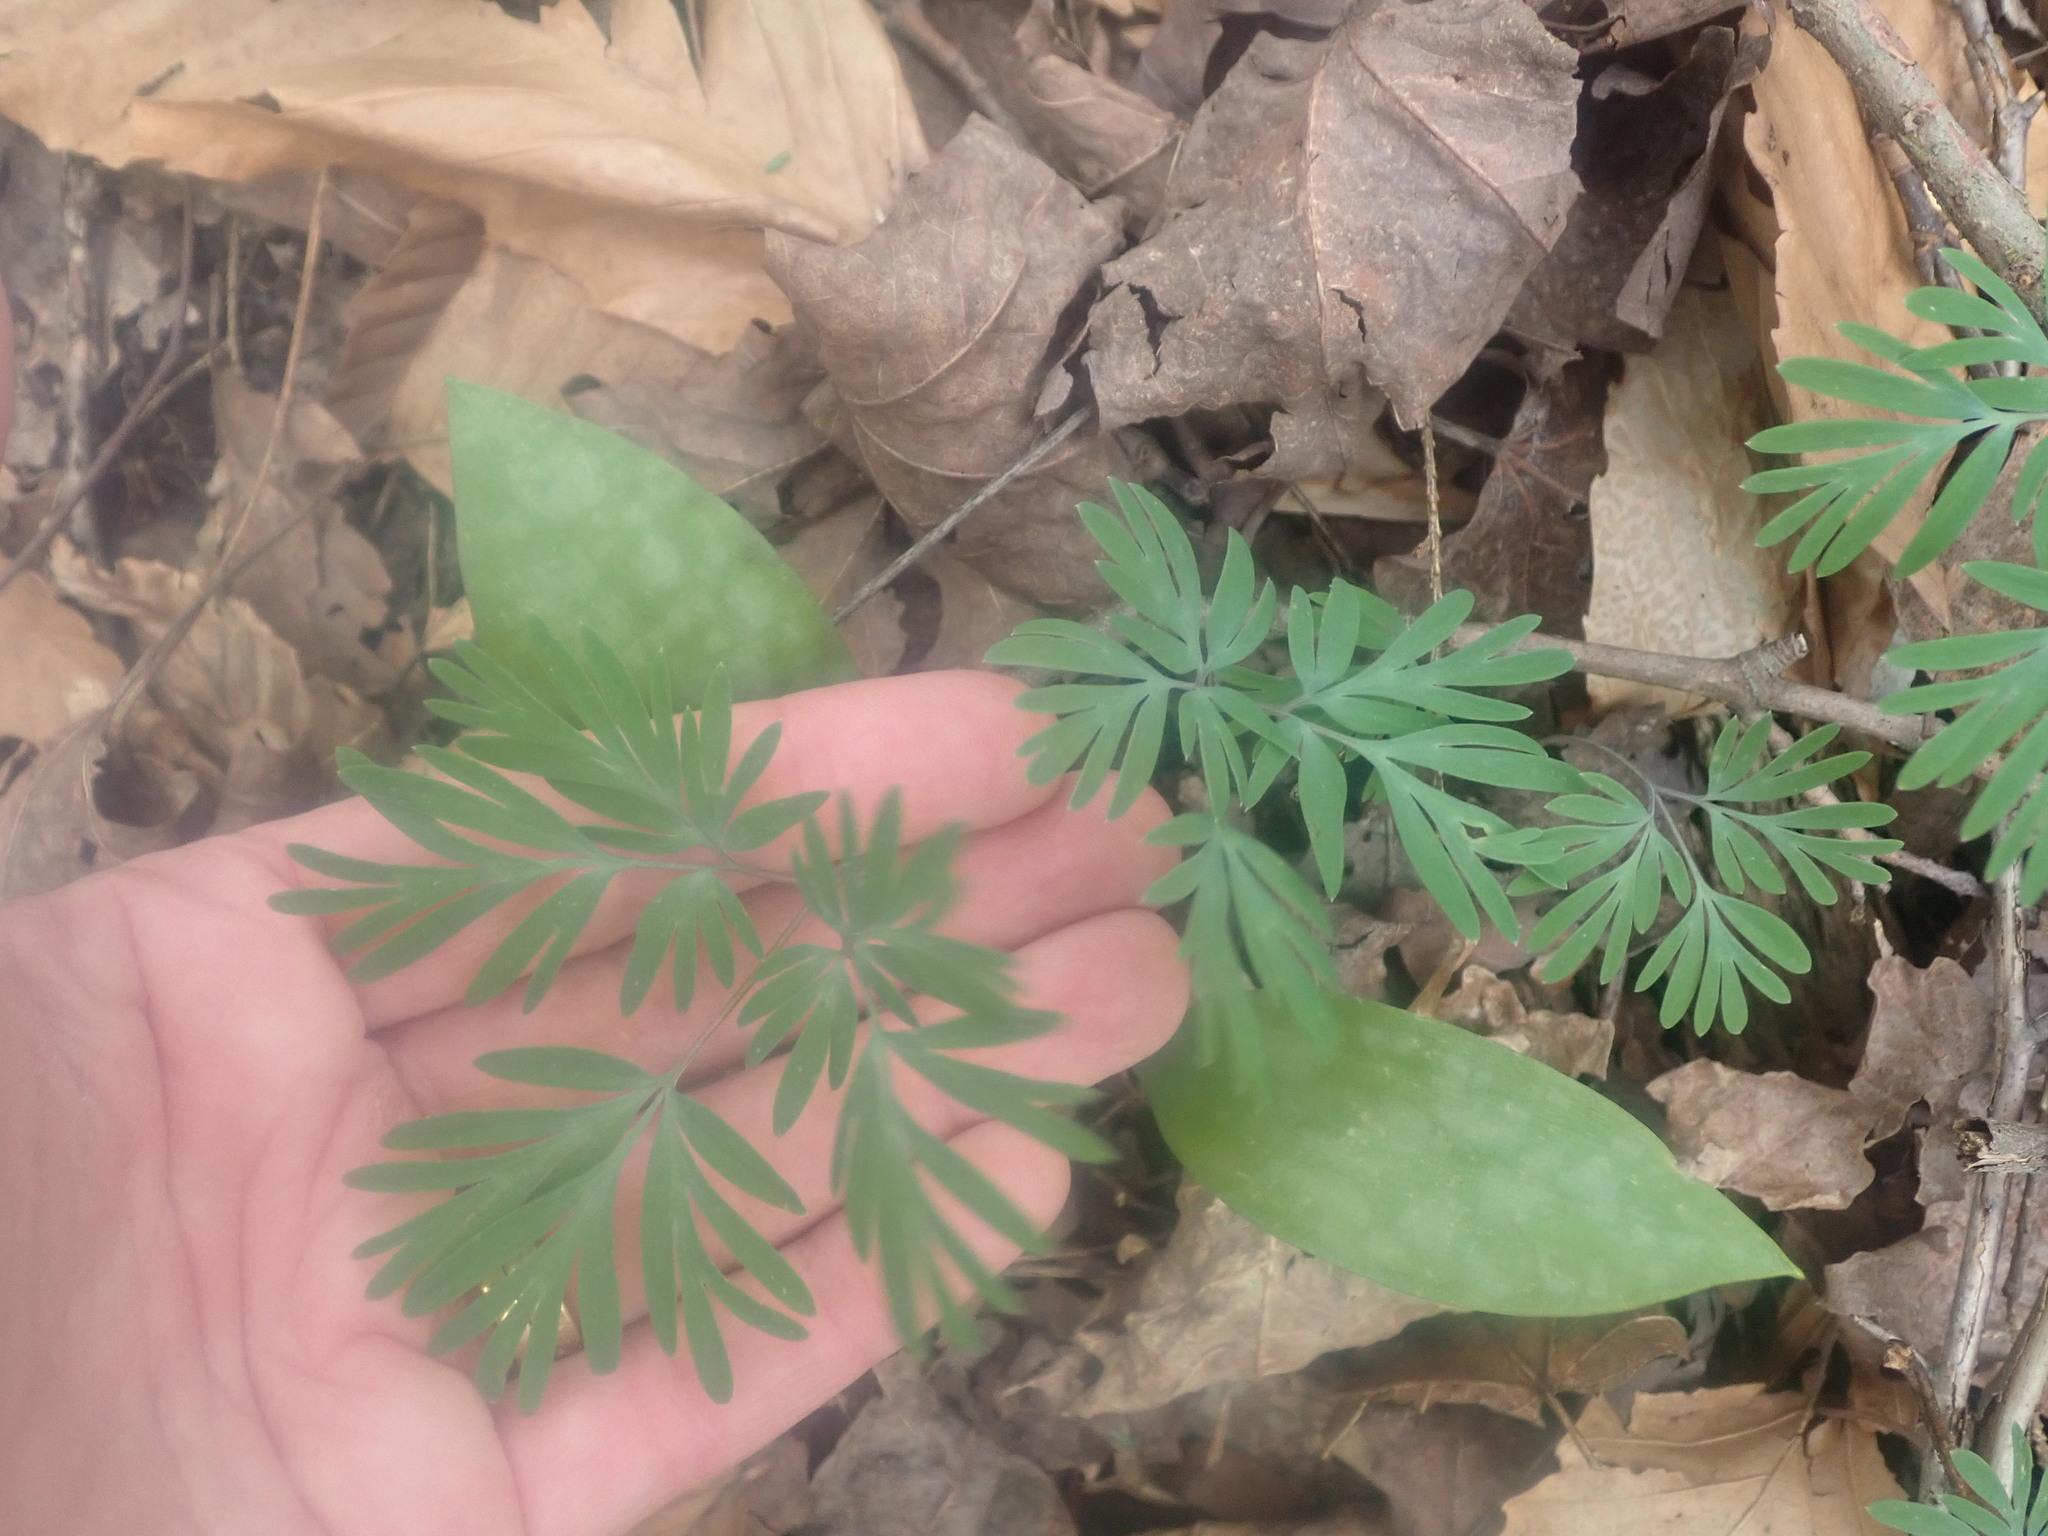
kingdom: Plantae
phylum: Tracheophyta
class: Magnoliopsida
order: Ranunculales
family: Papaveraceae
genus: Dicentra
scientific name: Dicentra
